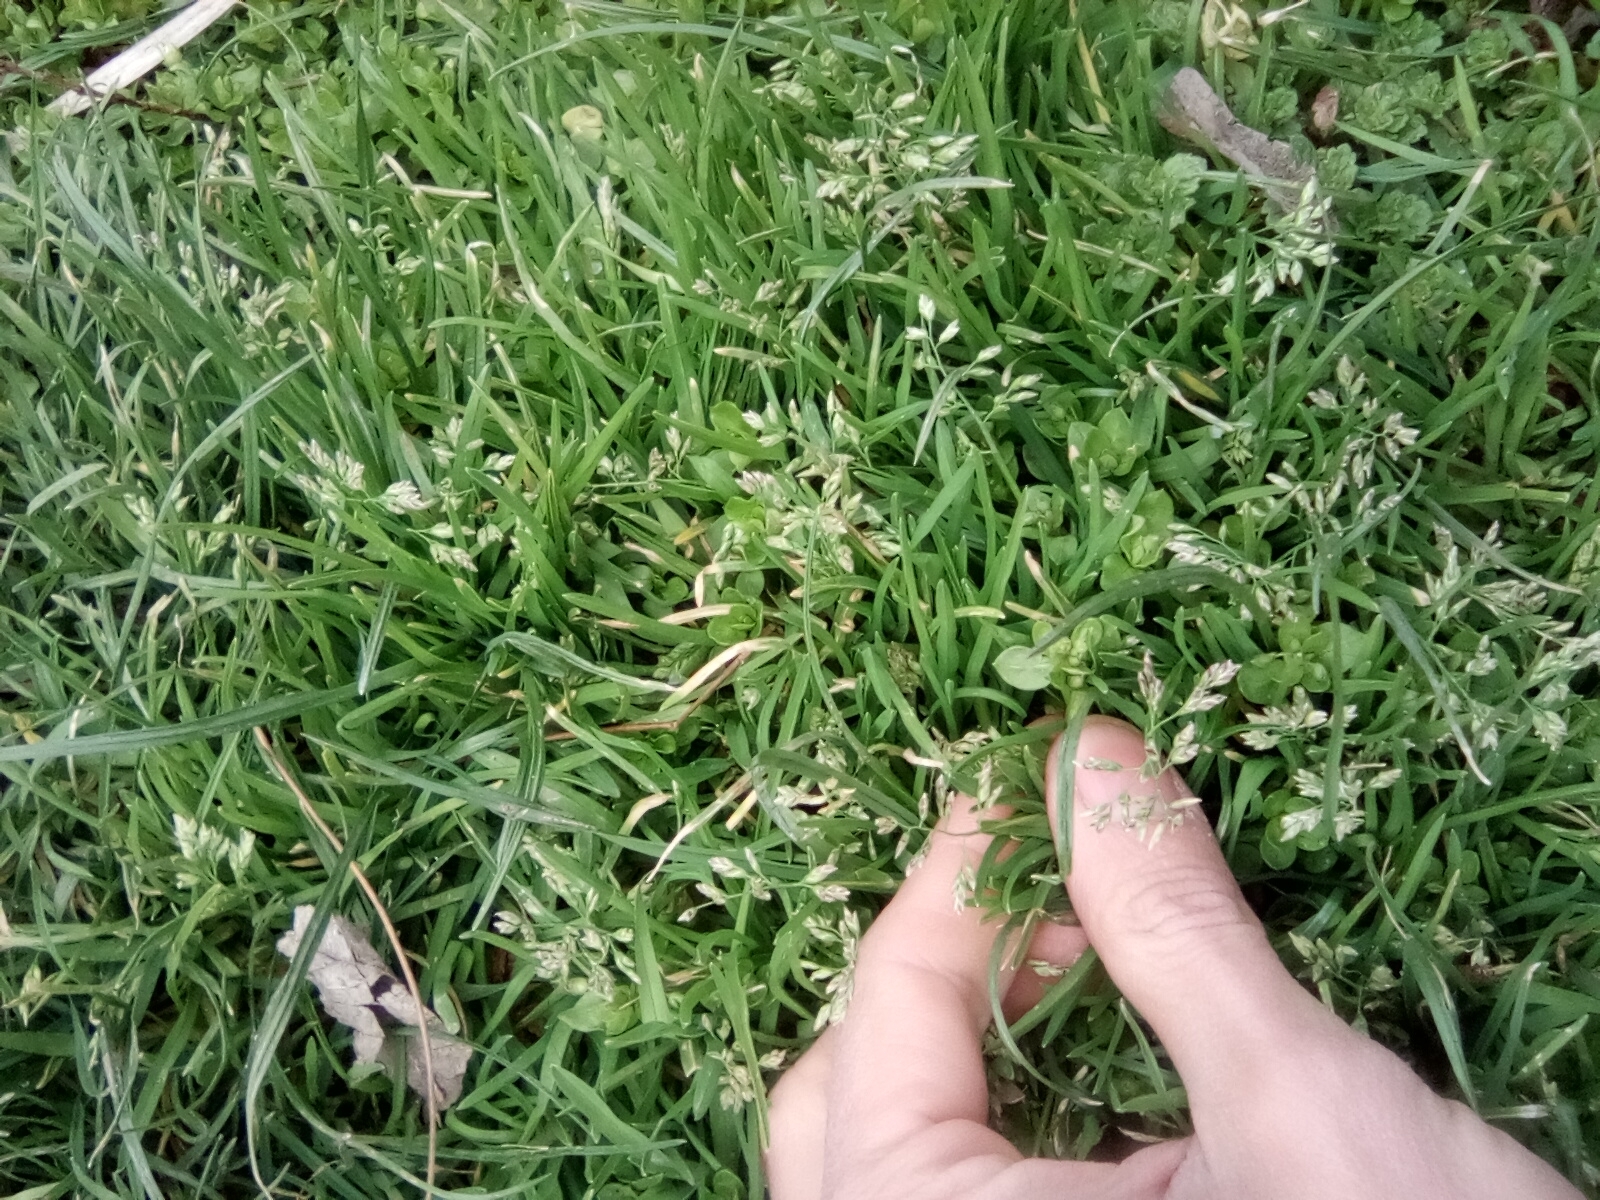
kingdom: Plantae
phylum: Tracheophyta
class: Liliopsida
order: Poales
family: Poaceae
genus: Poa
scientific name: Poa annua
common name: Annual bluegrass
